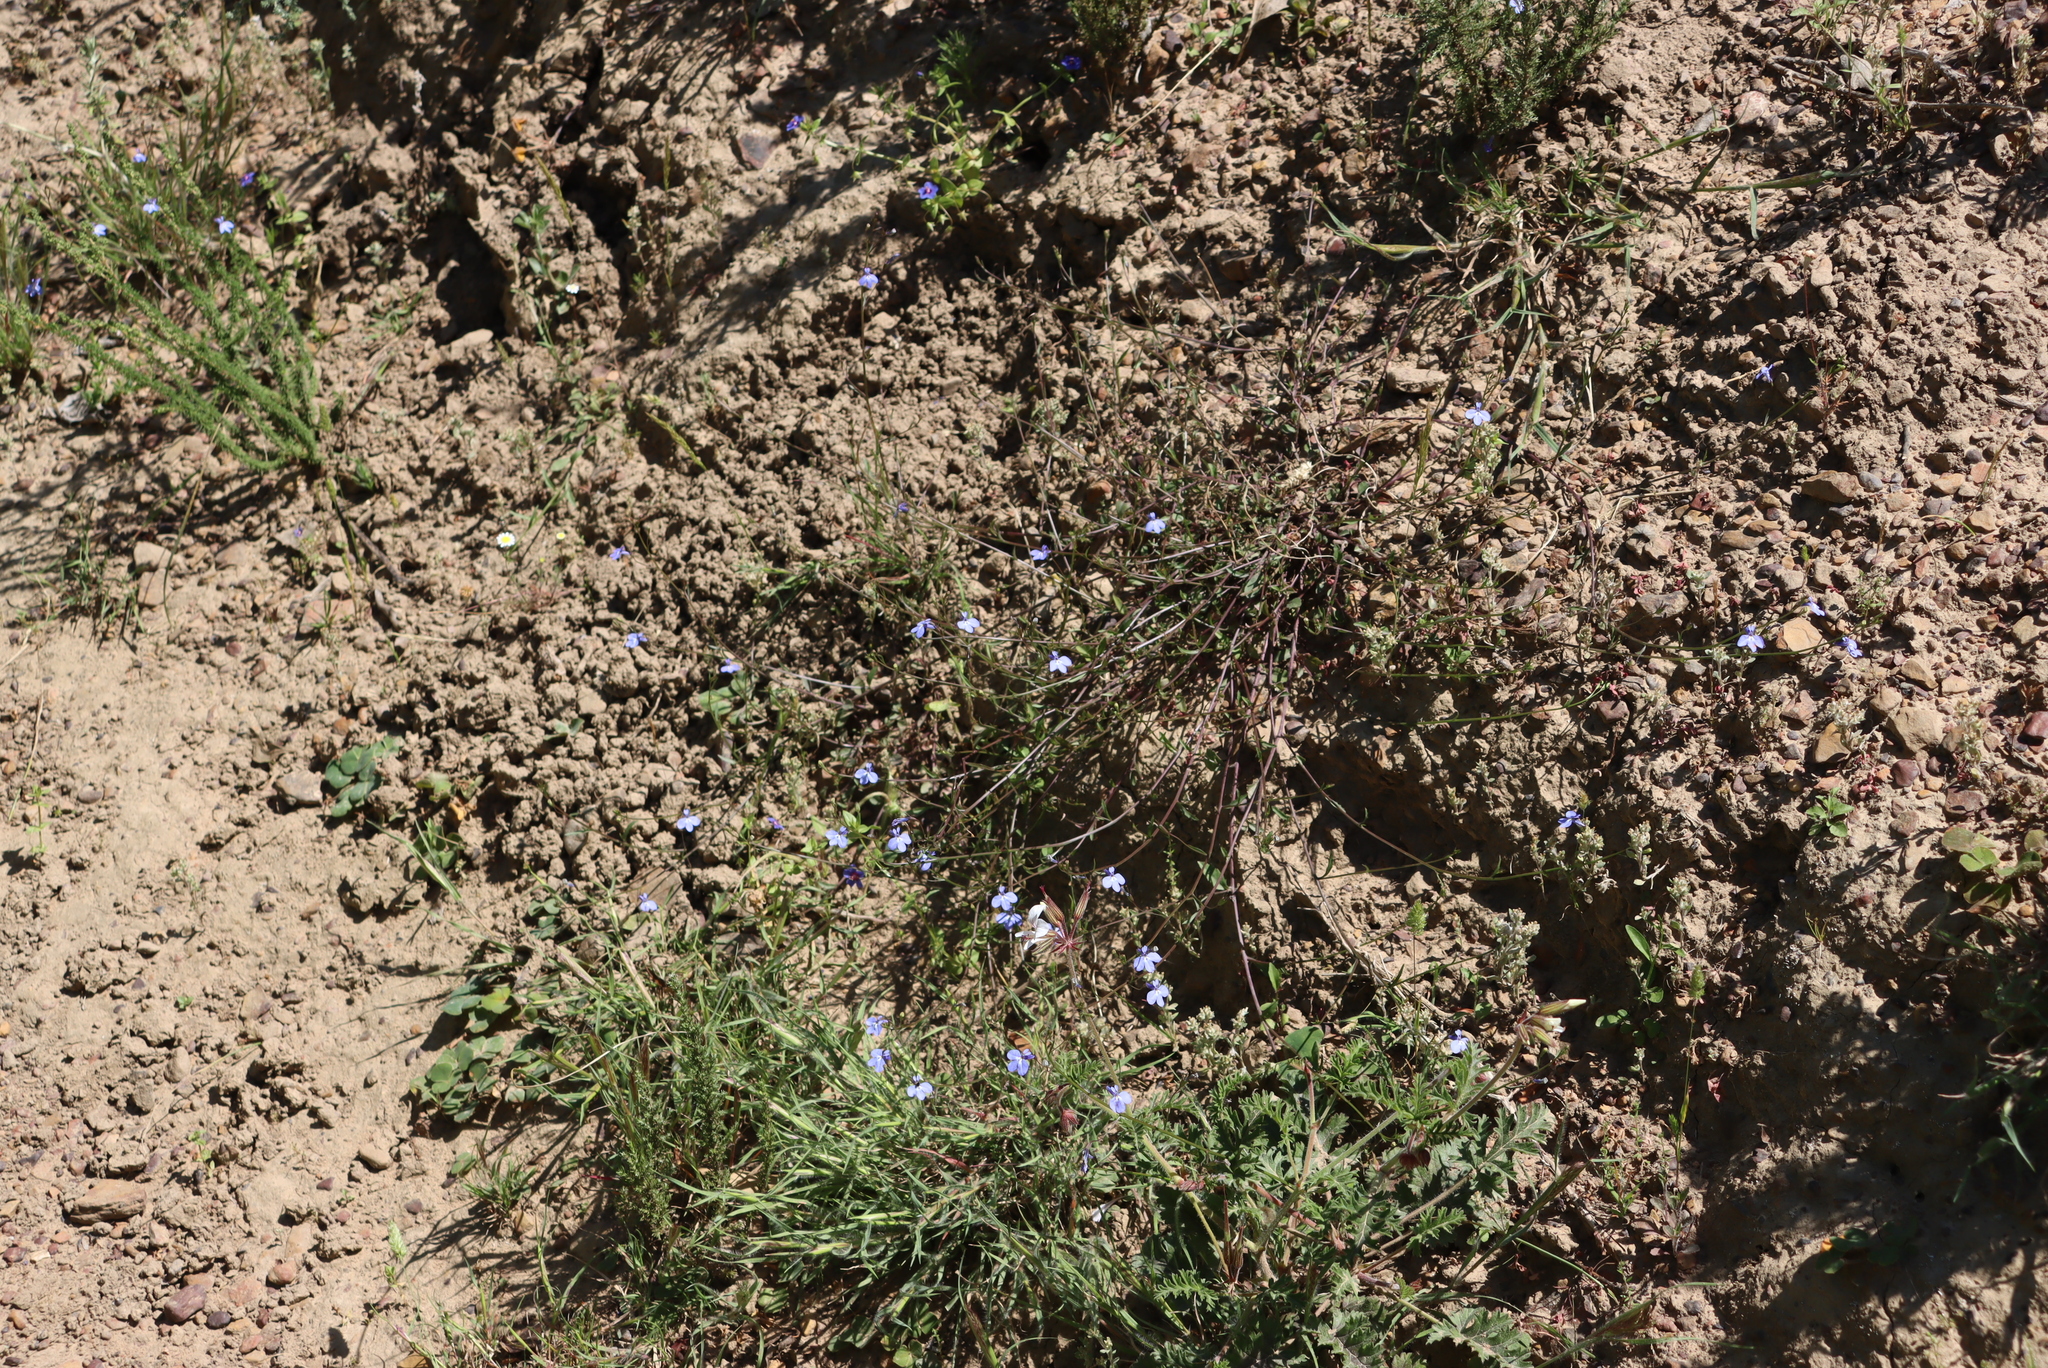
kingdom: Plantae
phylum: Tracheophyta
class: Magnoliopsida
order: Asterales
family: Campanulaceae
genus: Lobelia
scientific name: Lobelia erinus
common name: Edging lobelia
